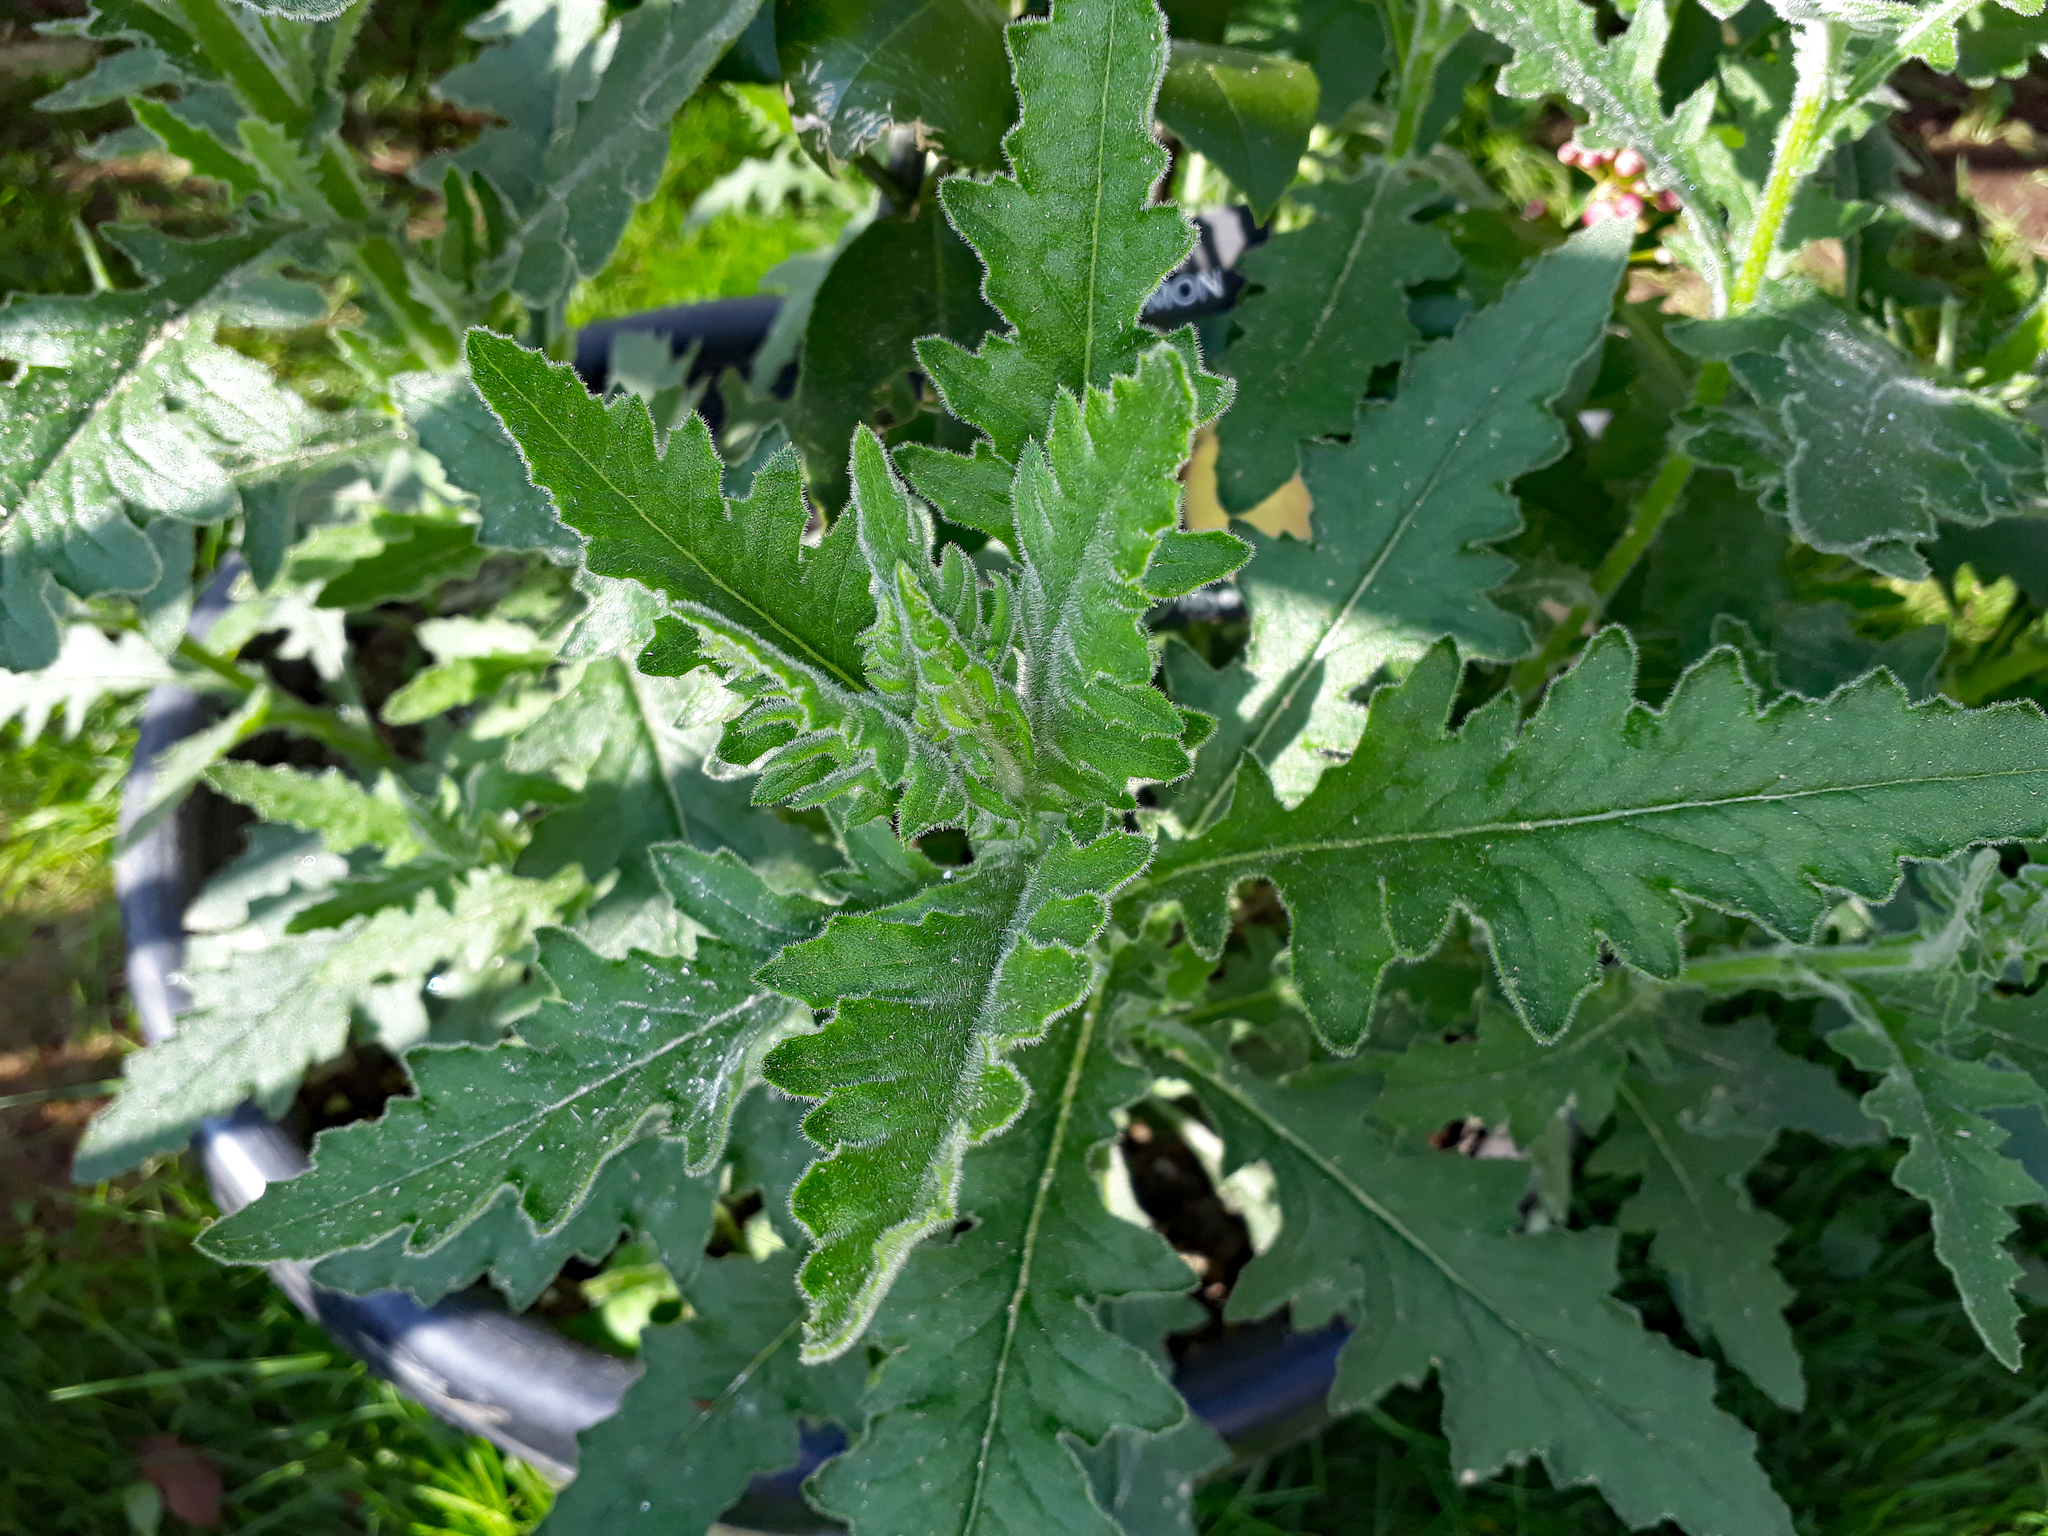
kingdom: Plantae
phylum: Tracheophyta
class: Magnoliopsida
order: Asterales
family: Asteraceae
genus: Senecio
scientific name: Senecio scaberulus
